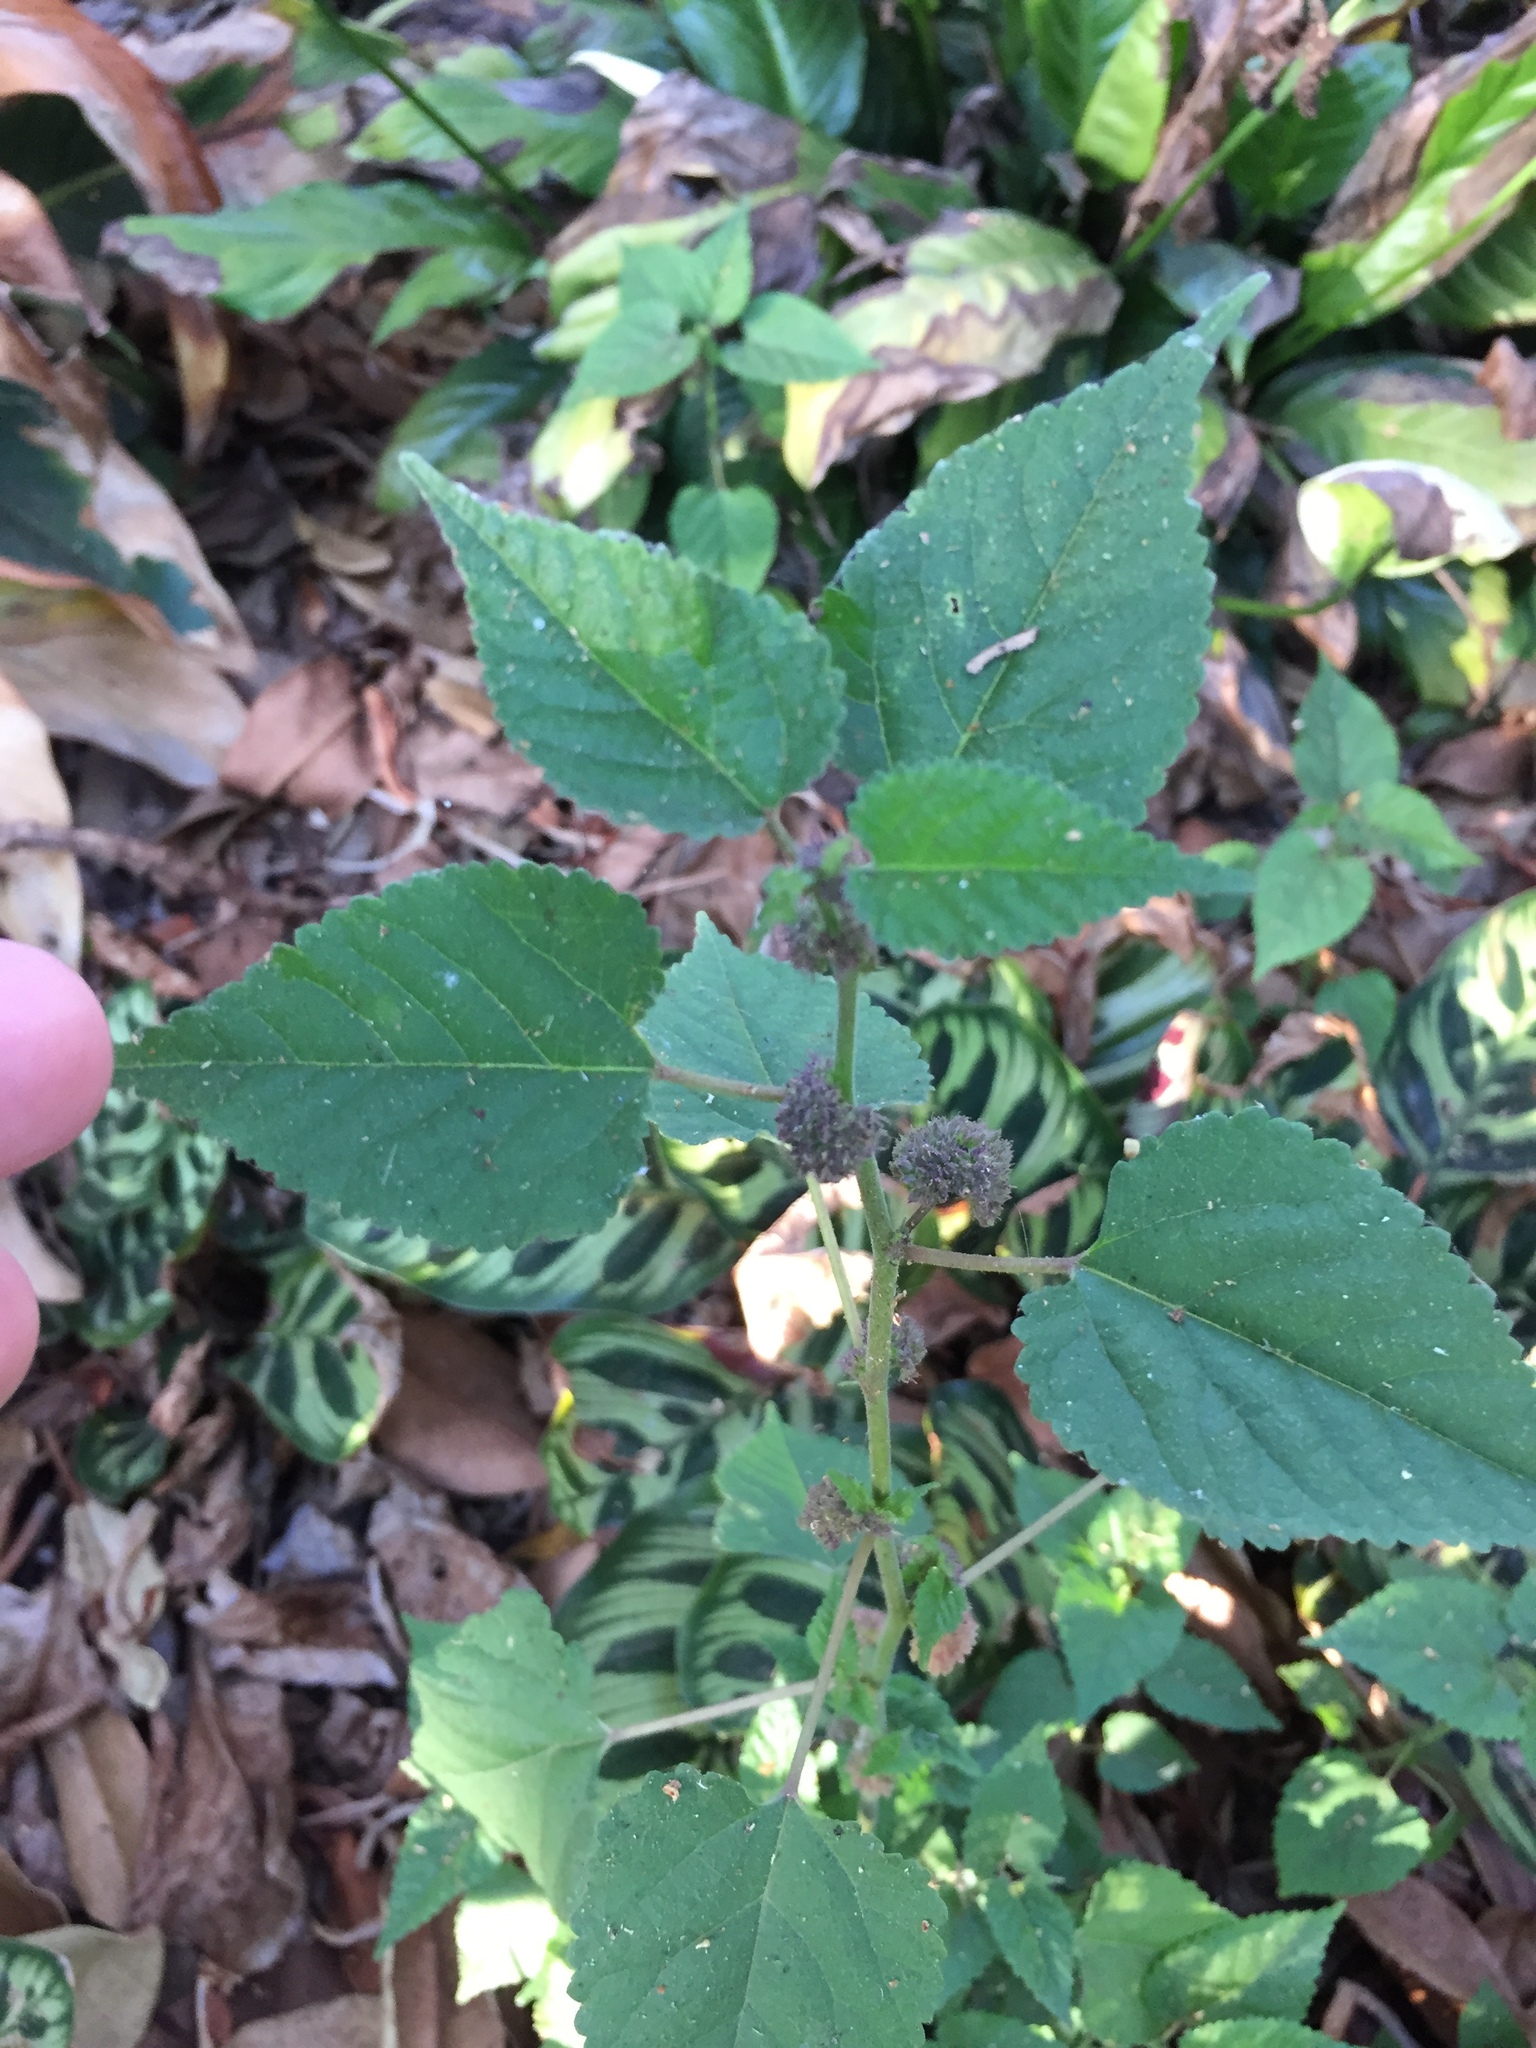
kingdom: Plantae
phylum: Tracheophyta
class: Magnoliopsida
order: Rosales
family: Moraceae
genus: Fatoua
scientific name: Fatoua villosa
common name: Hairy crabweed
